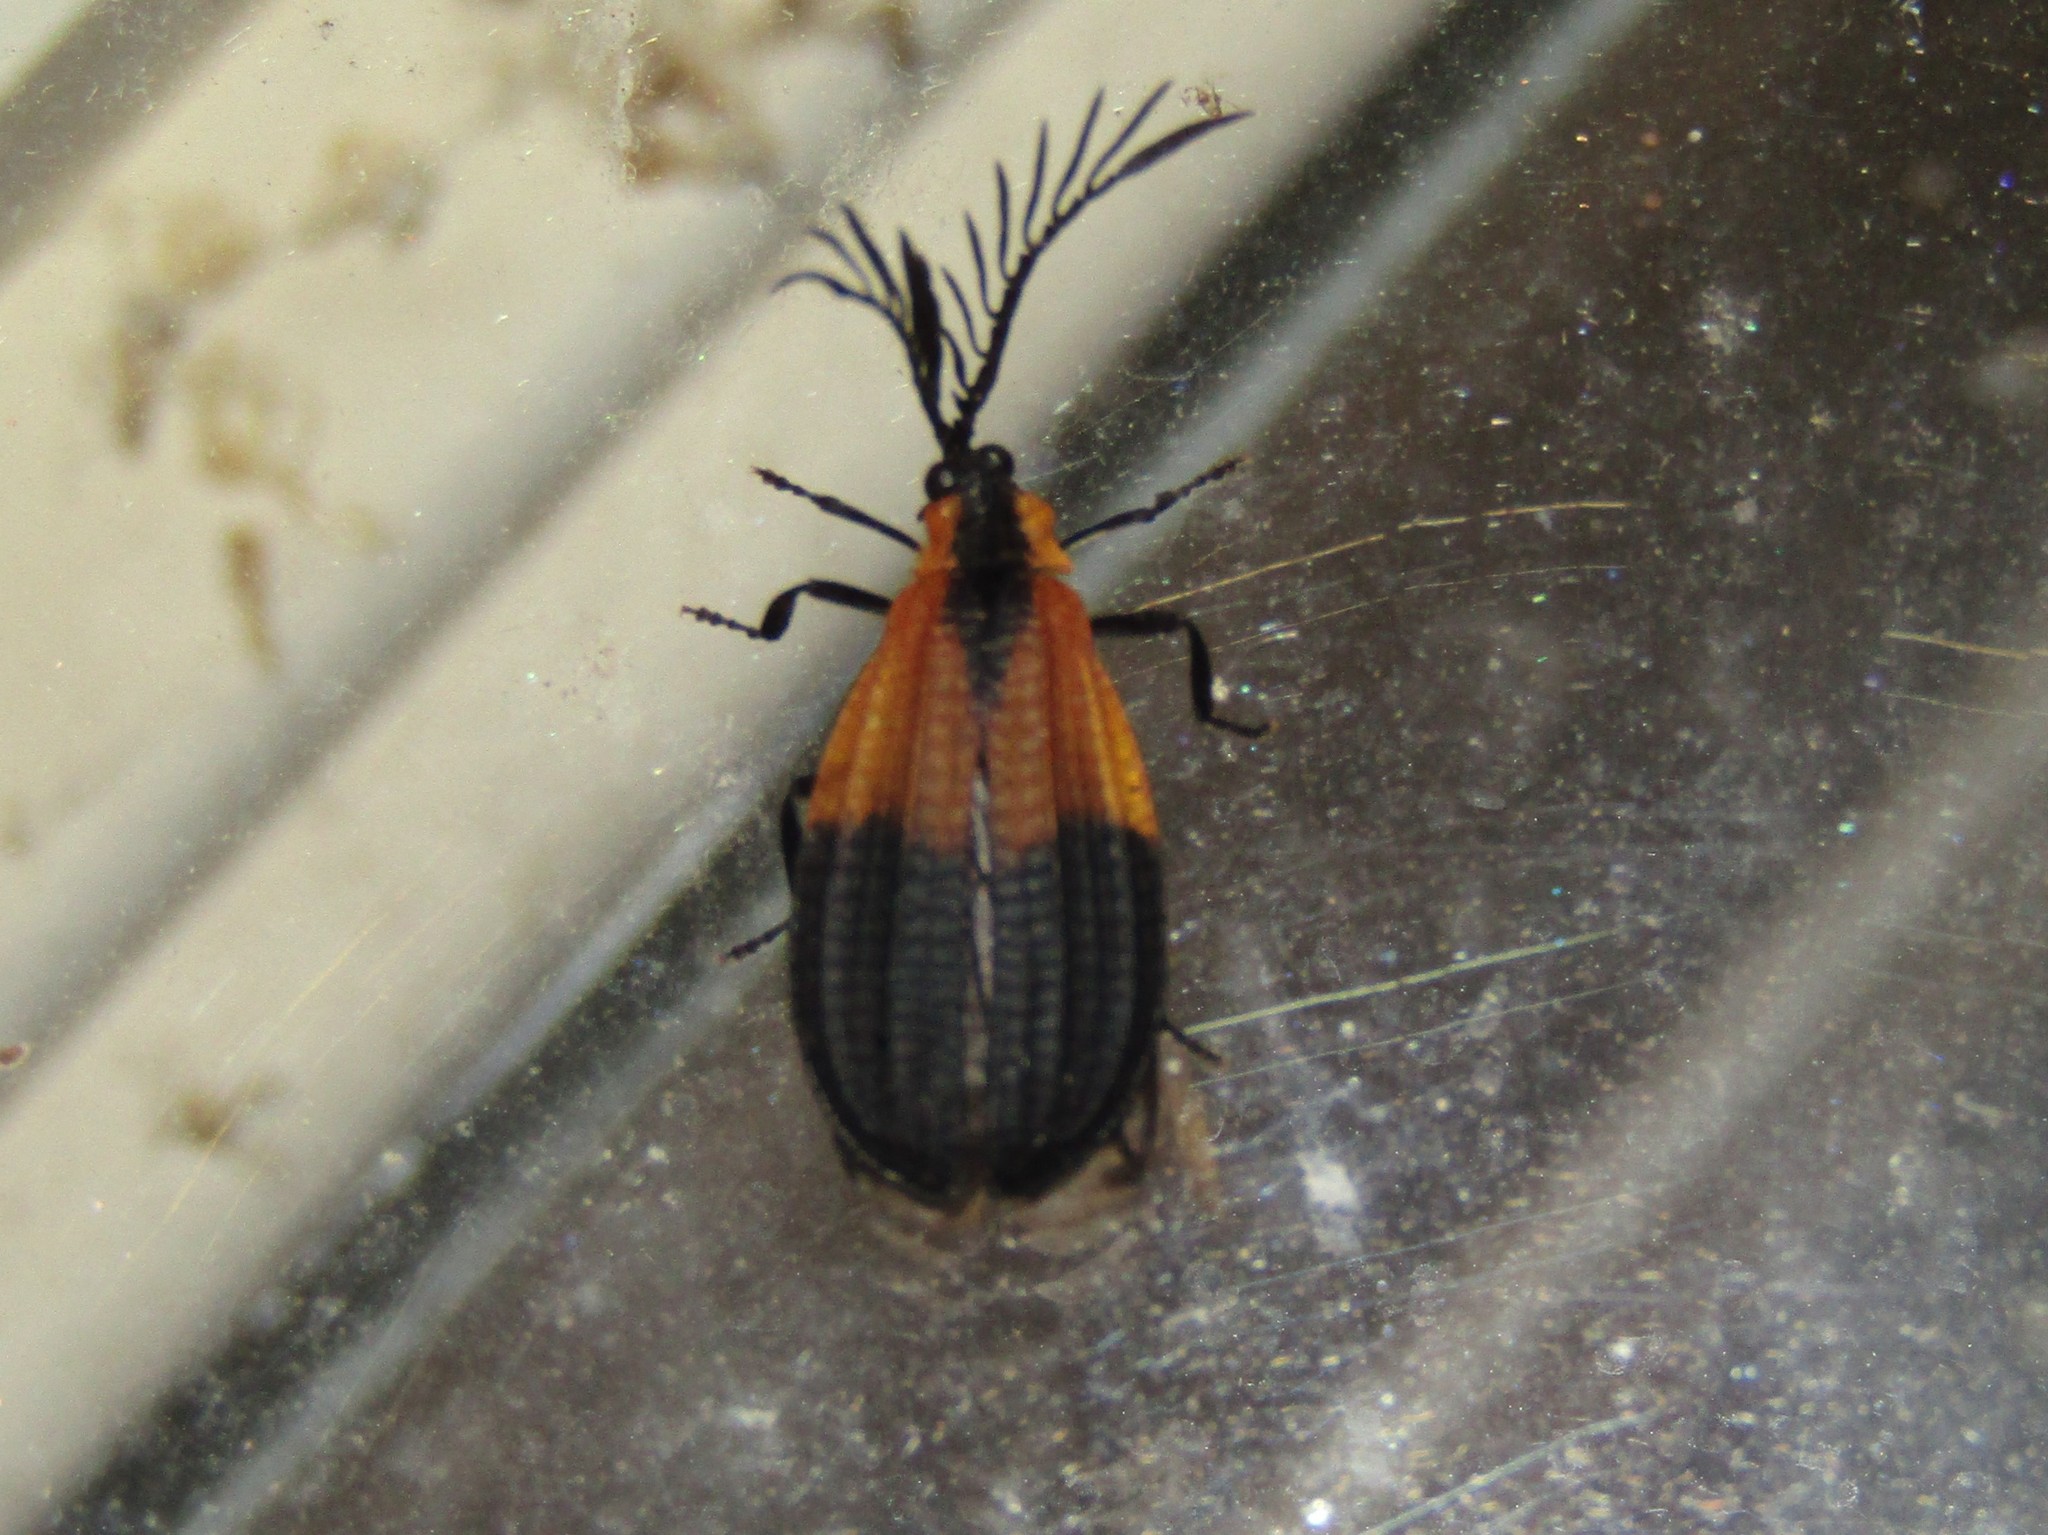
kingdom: Animalia
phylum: Arthropoda
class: Insecta
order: Coleoptera
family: Lycidae
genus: Caenia
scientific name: Caenia dimidiata
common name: Terminal net-winged beetle
